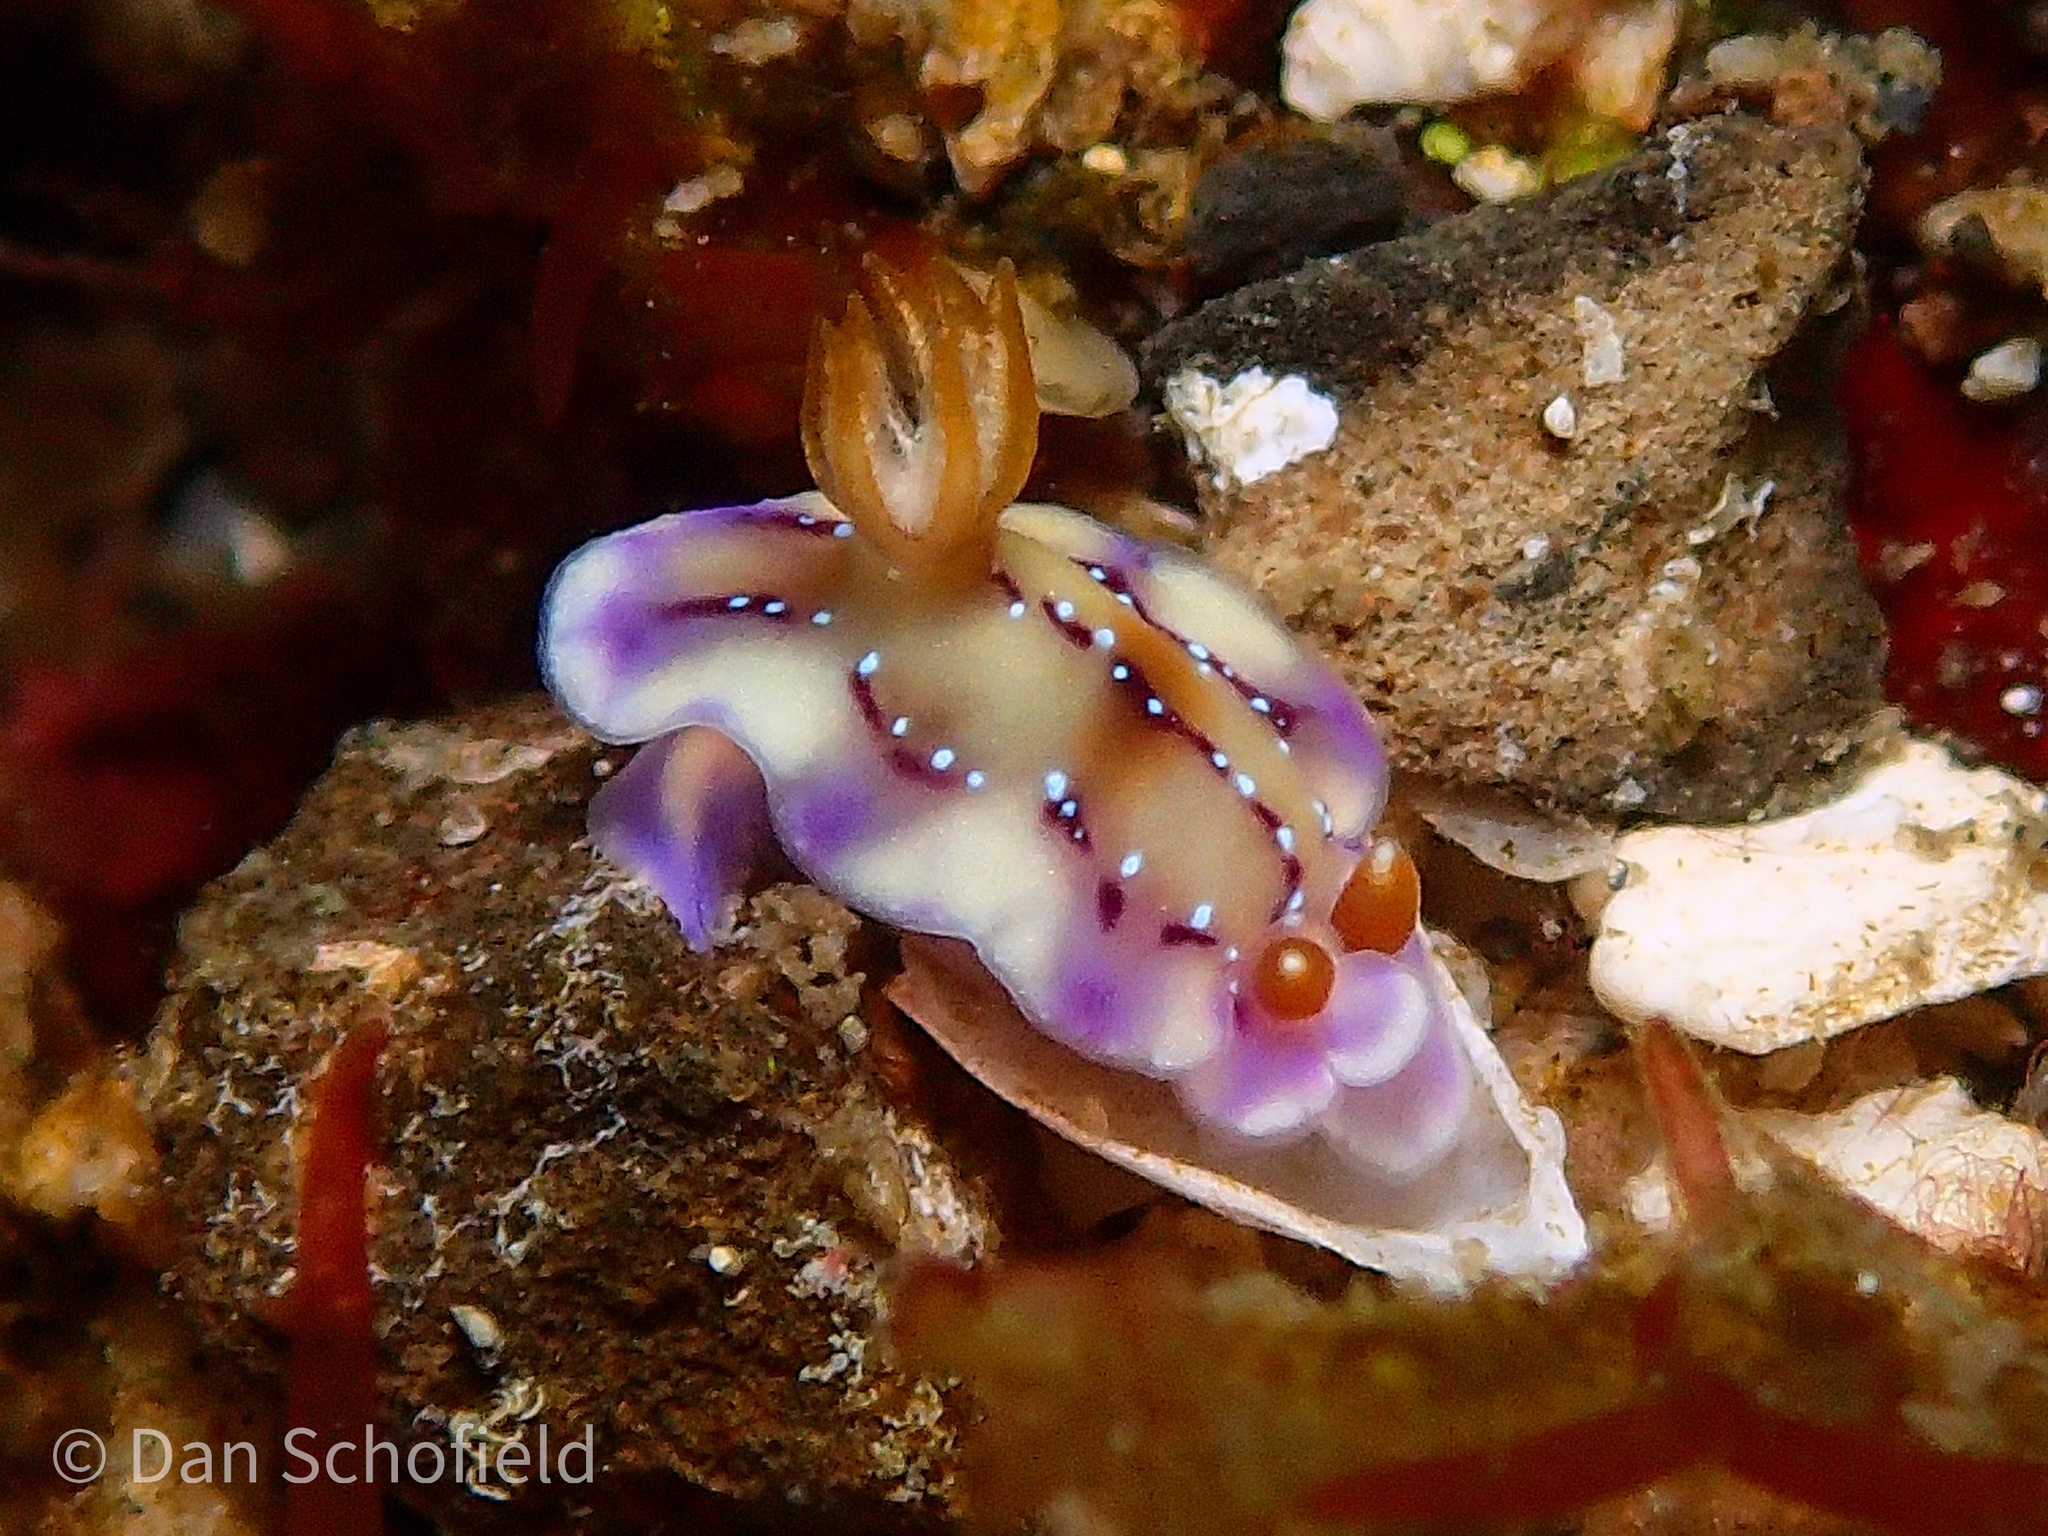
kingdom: Animalia
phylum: Mollusca
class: Gastropoda
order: Nudibranchia
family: Chromodorididae
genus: Hypselodoris
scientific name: Hypselodoris krakatoa
